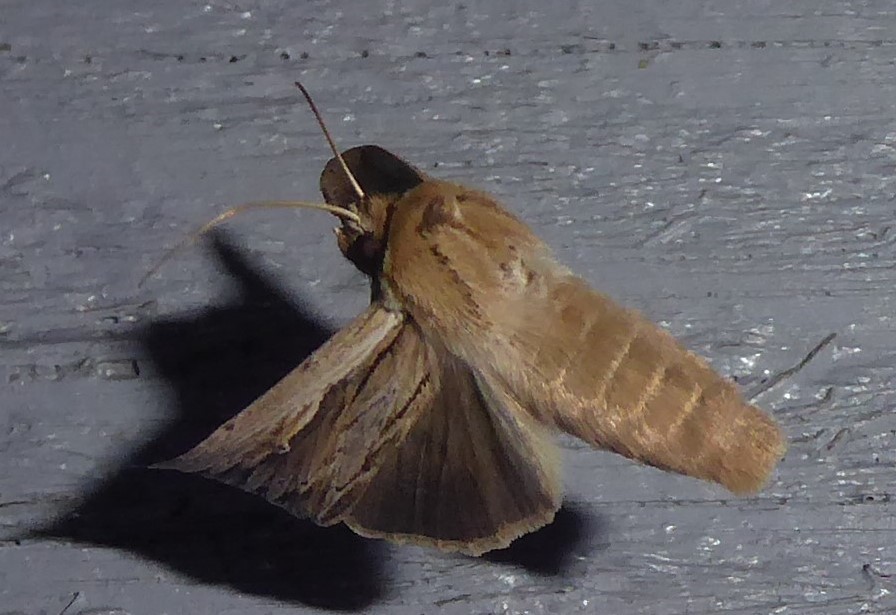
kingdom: Animalia
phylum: Arthropoda
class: Insecta
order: Lepidoptera
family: Noctuidae
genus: Persectania
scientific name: Persectania aversa
